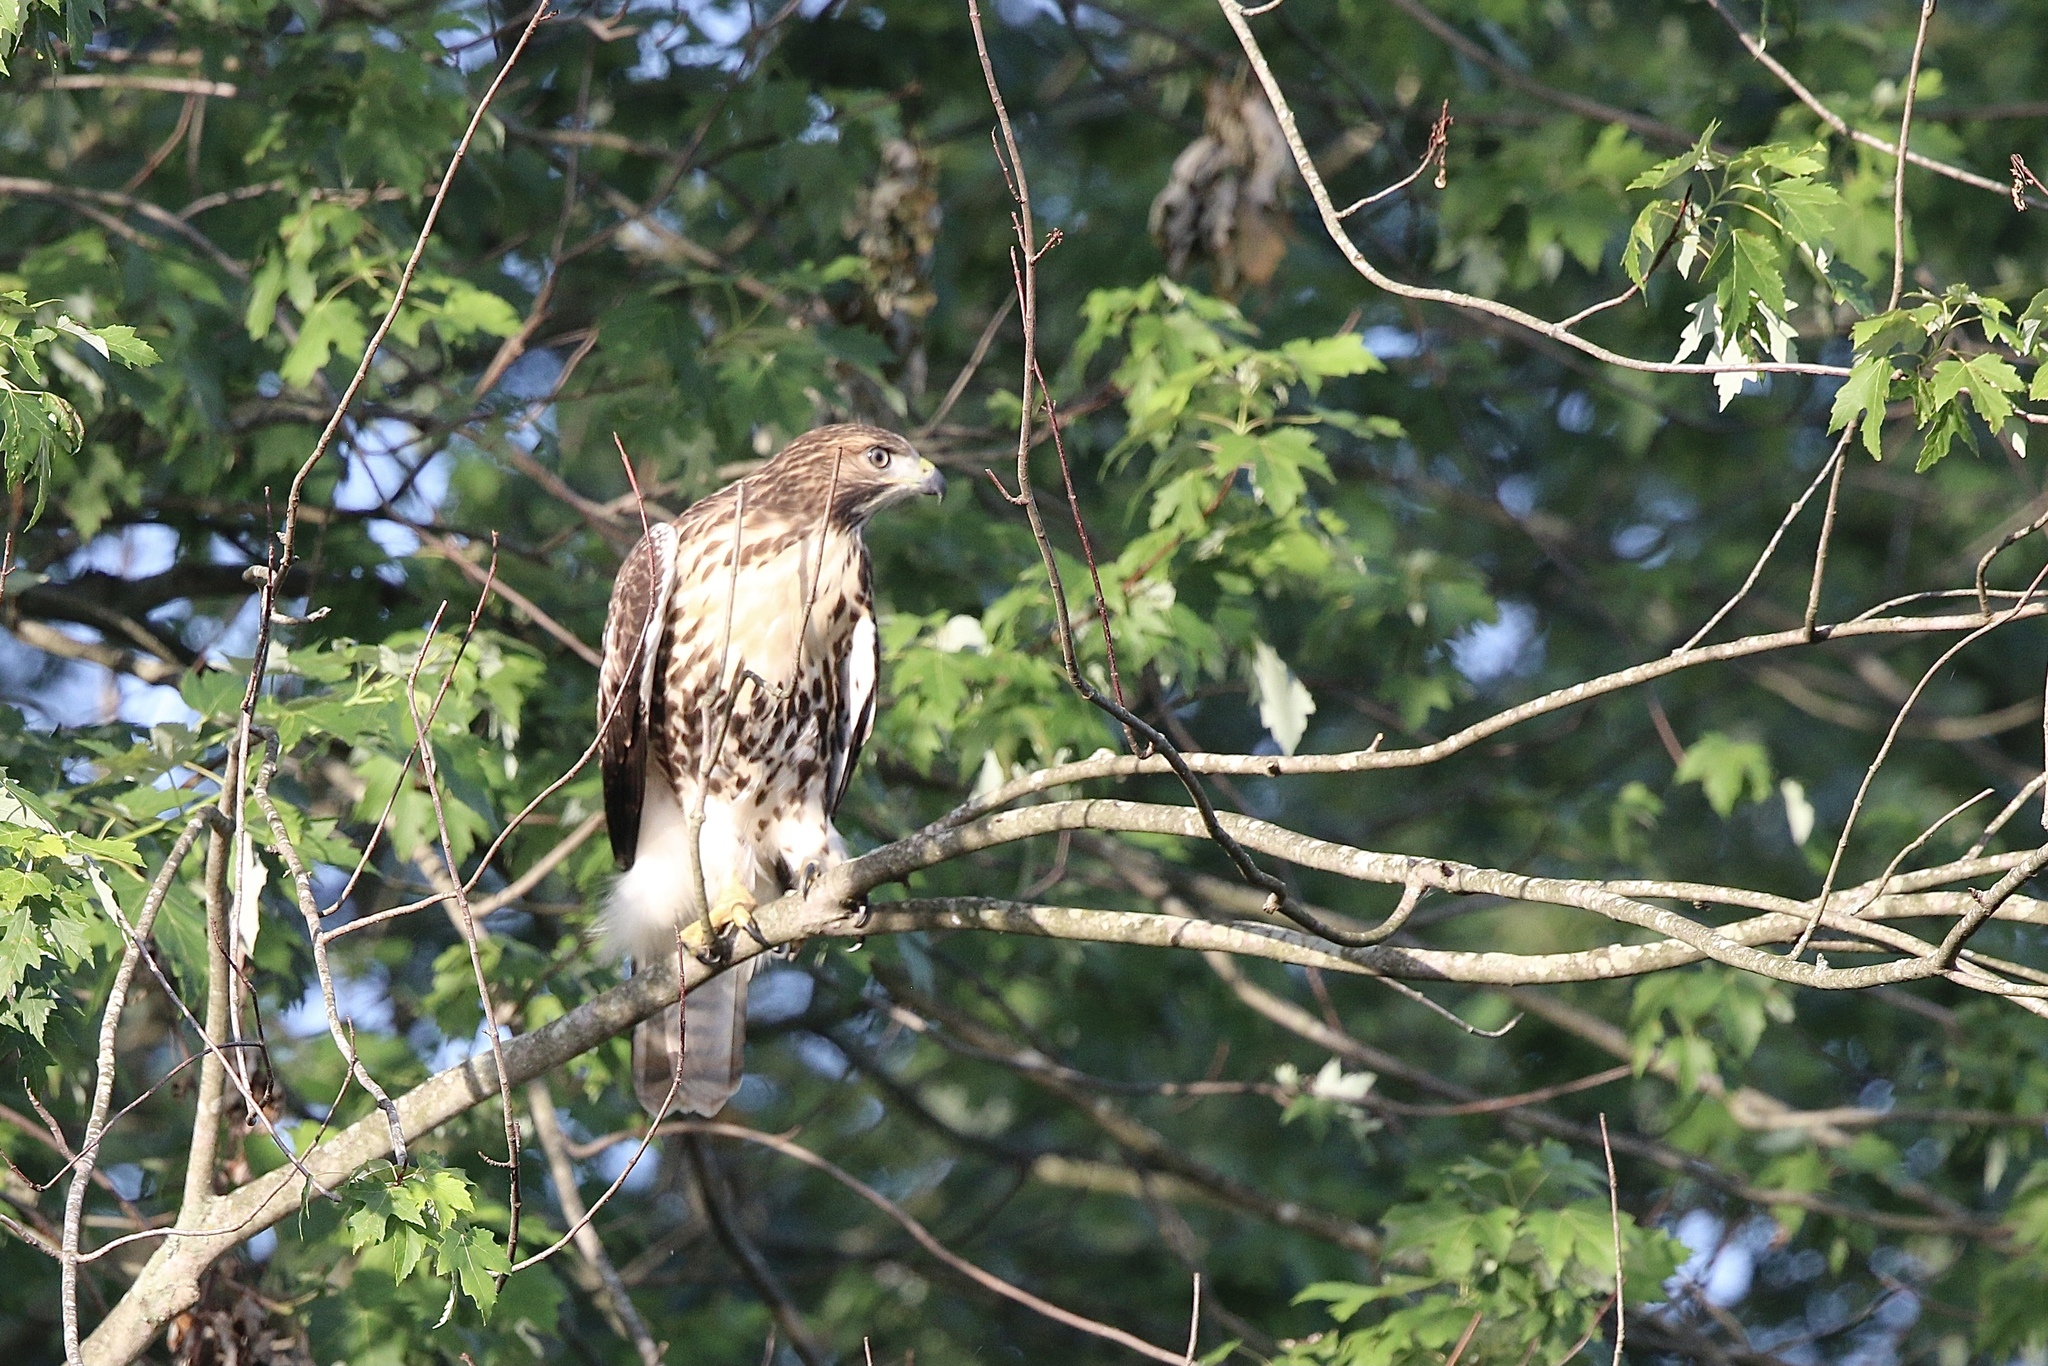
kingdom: Animalia
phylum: Chordata
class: Aves
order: Accipitriformes
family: Accipitridae
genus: Buteo
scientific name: Buteo jamaicensis
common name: Red-tailed hawk
